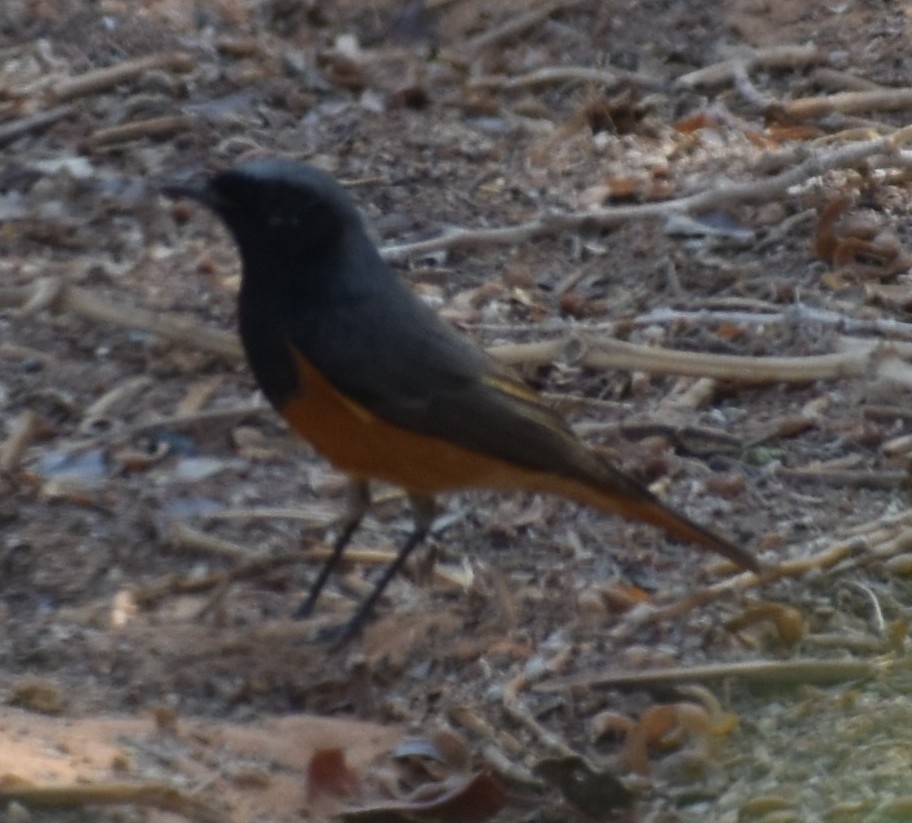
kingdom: Animalia
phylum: Chordata
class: Aves
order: Passeriformes
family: Muscicapidae
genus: Phoenicurus
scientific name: Phoenicurus ochruros
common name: Black redstart
